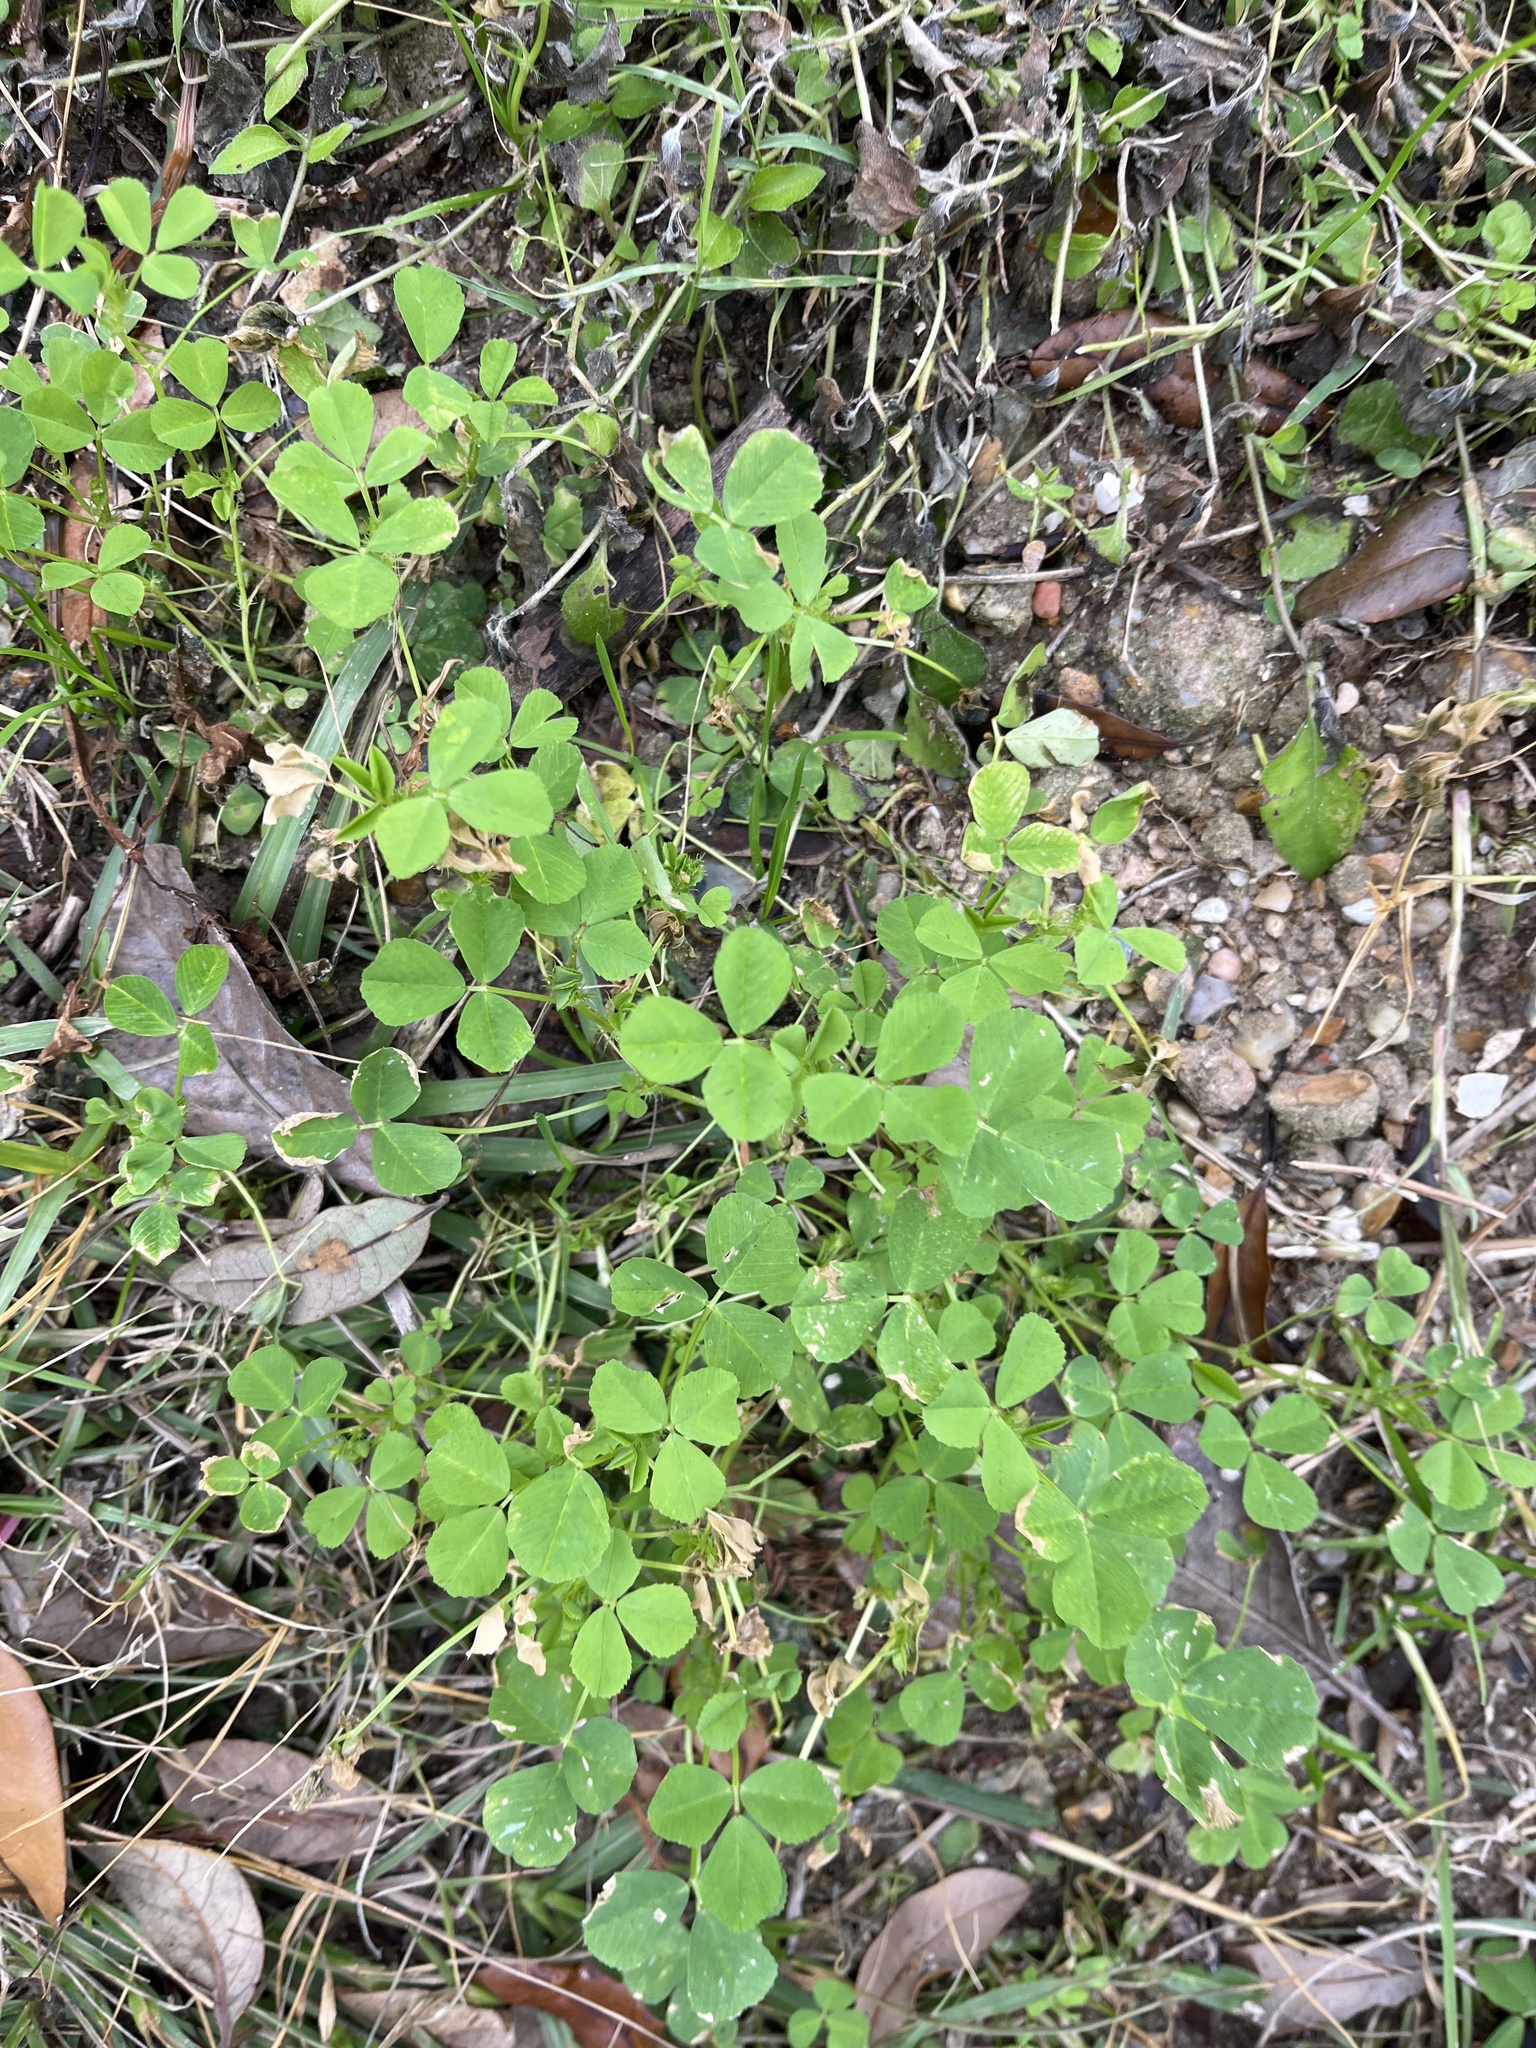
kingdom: Plantae
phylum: Tracheophyta
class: Magnoliopsida
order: Fabales
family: Fabaceae
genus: Medicago
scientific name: Medicago polymorpha
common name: Burclover
